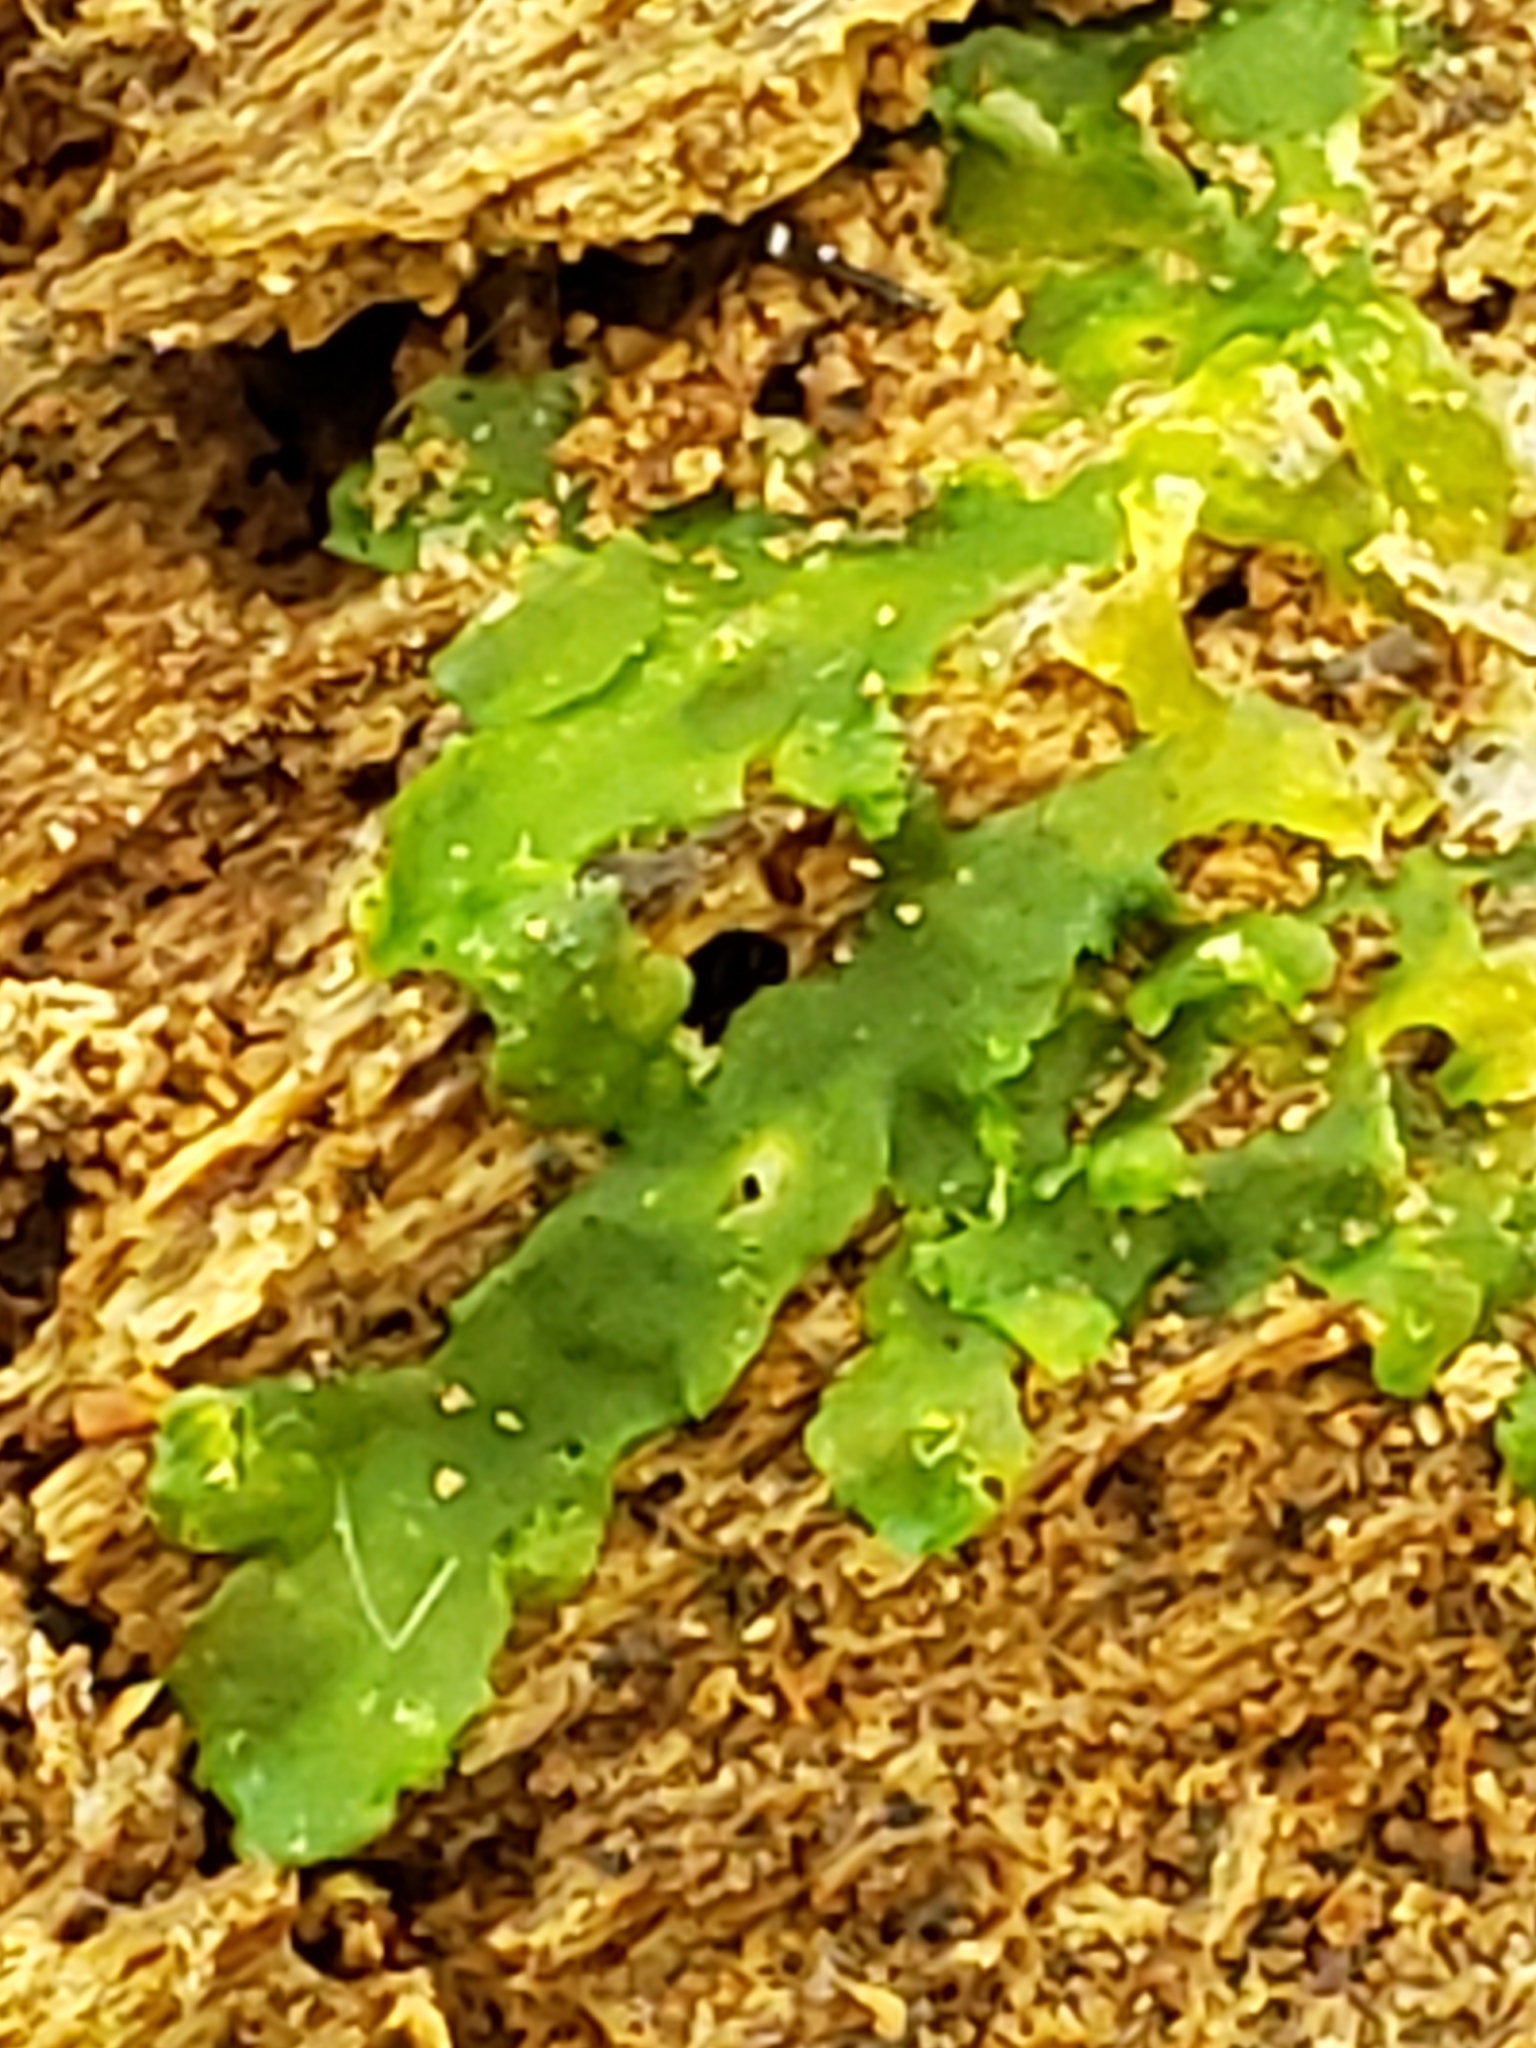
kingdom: Plantae
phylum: Marchantiophyta
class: Jungermanniopsida
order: Metzgeriales
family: Aneuraceae
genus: Aneura
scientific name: Aneura pinguis
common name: Common greasewort
